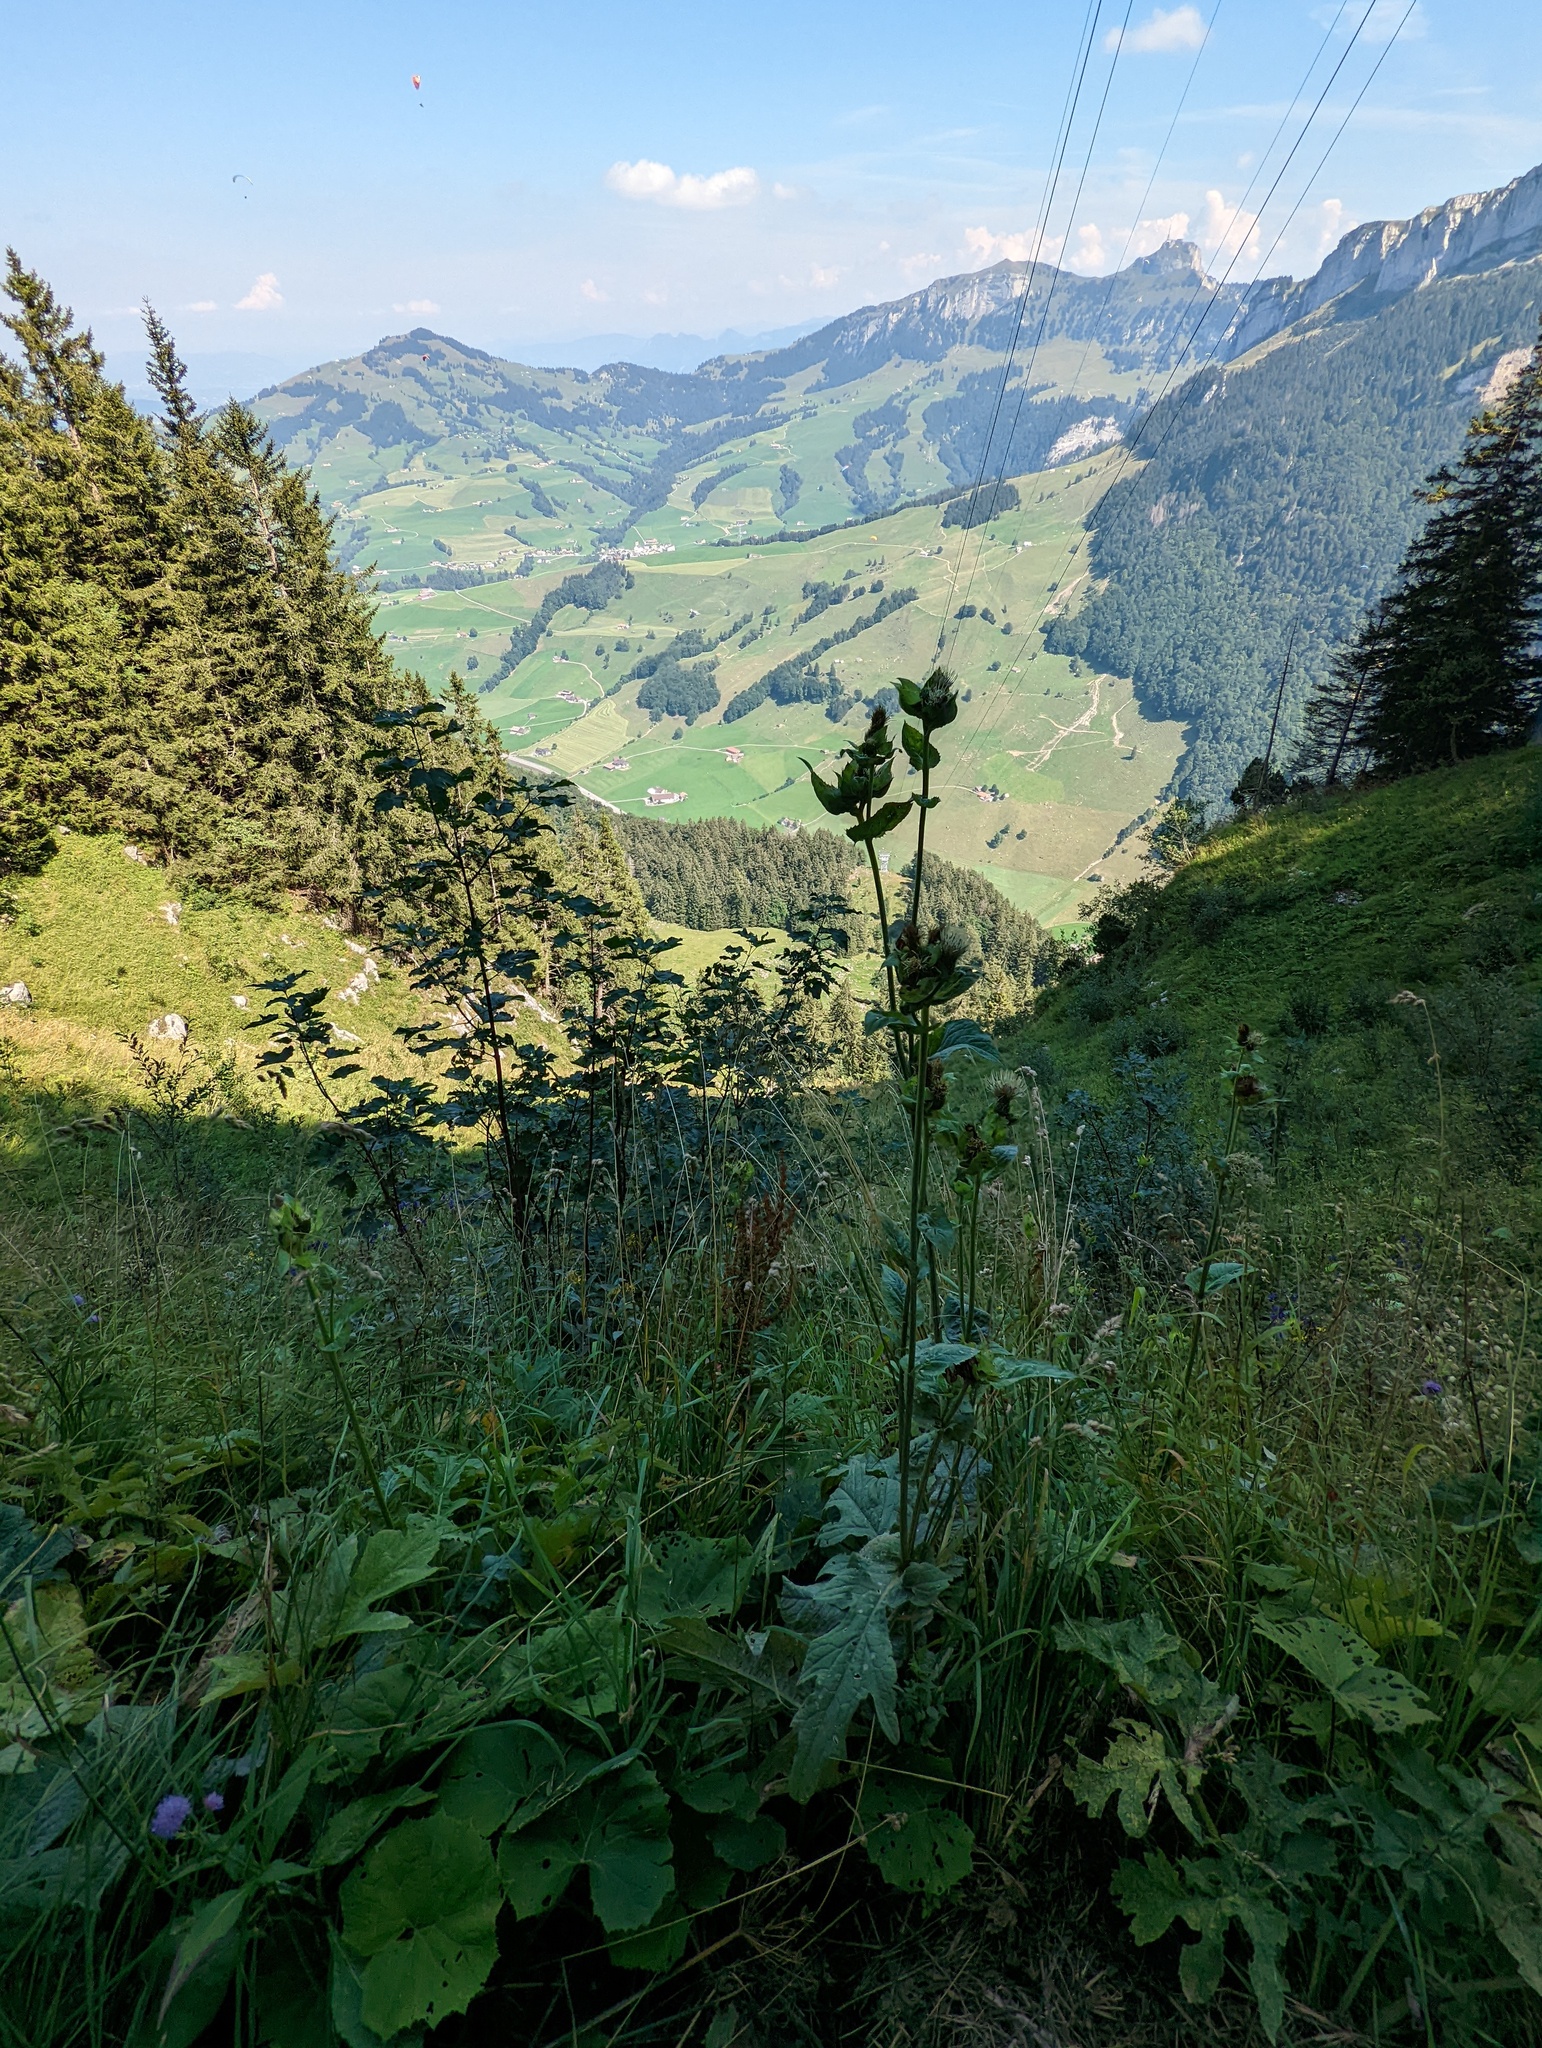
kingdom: Plantae
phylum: Tracheophyta
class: Magnoliopsida
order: Asterales
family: Asteraceae
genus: Cirsium
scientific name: Cirsium oleraceum
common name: Cabbage thistle
